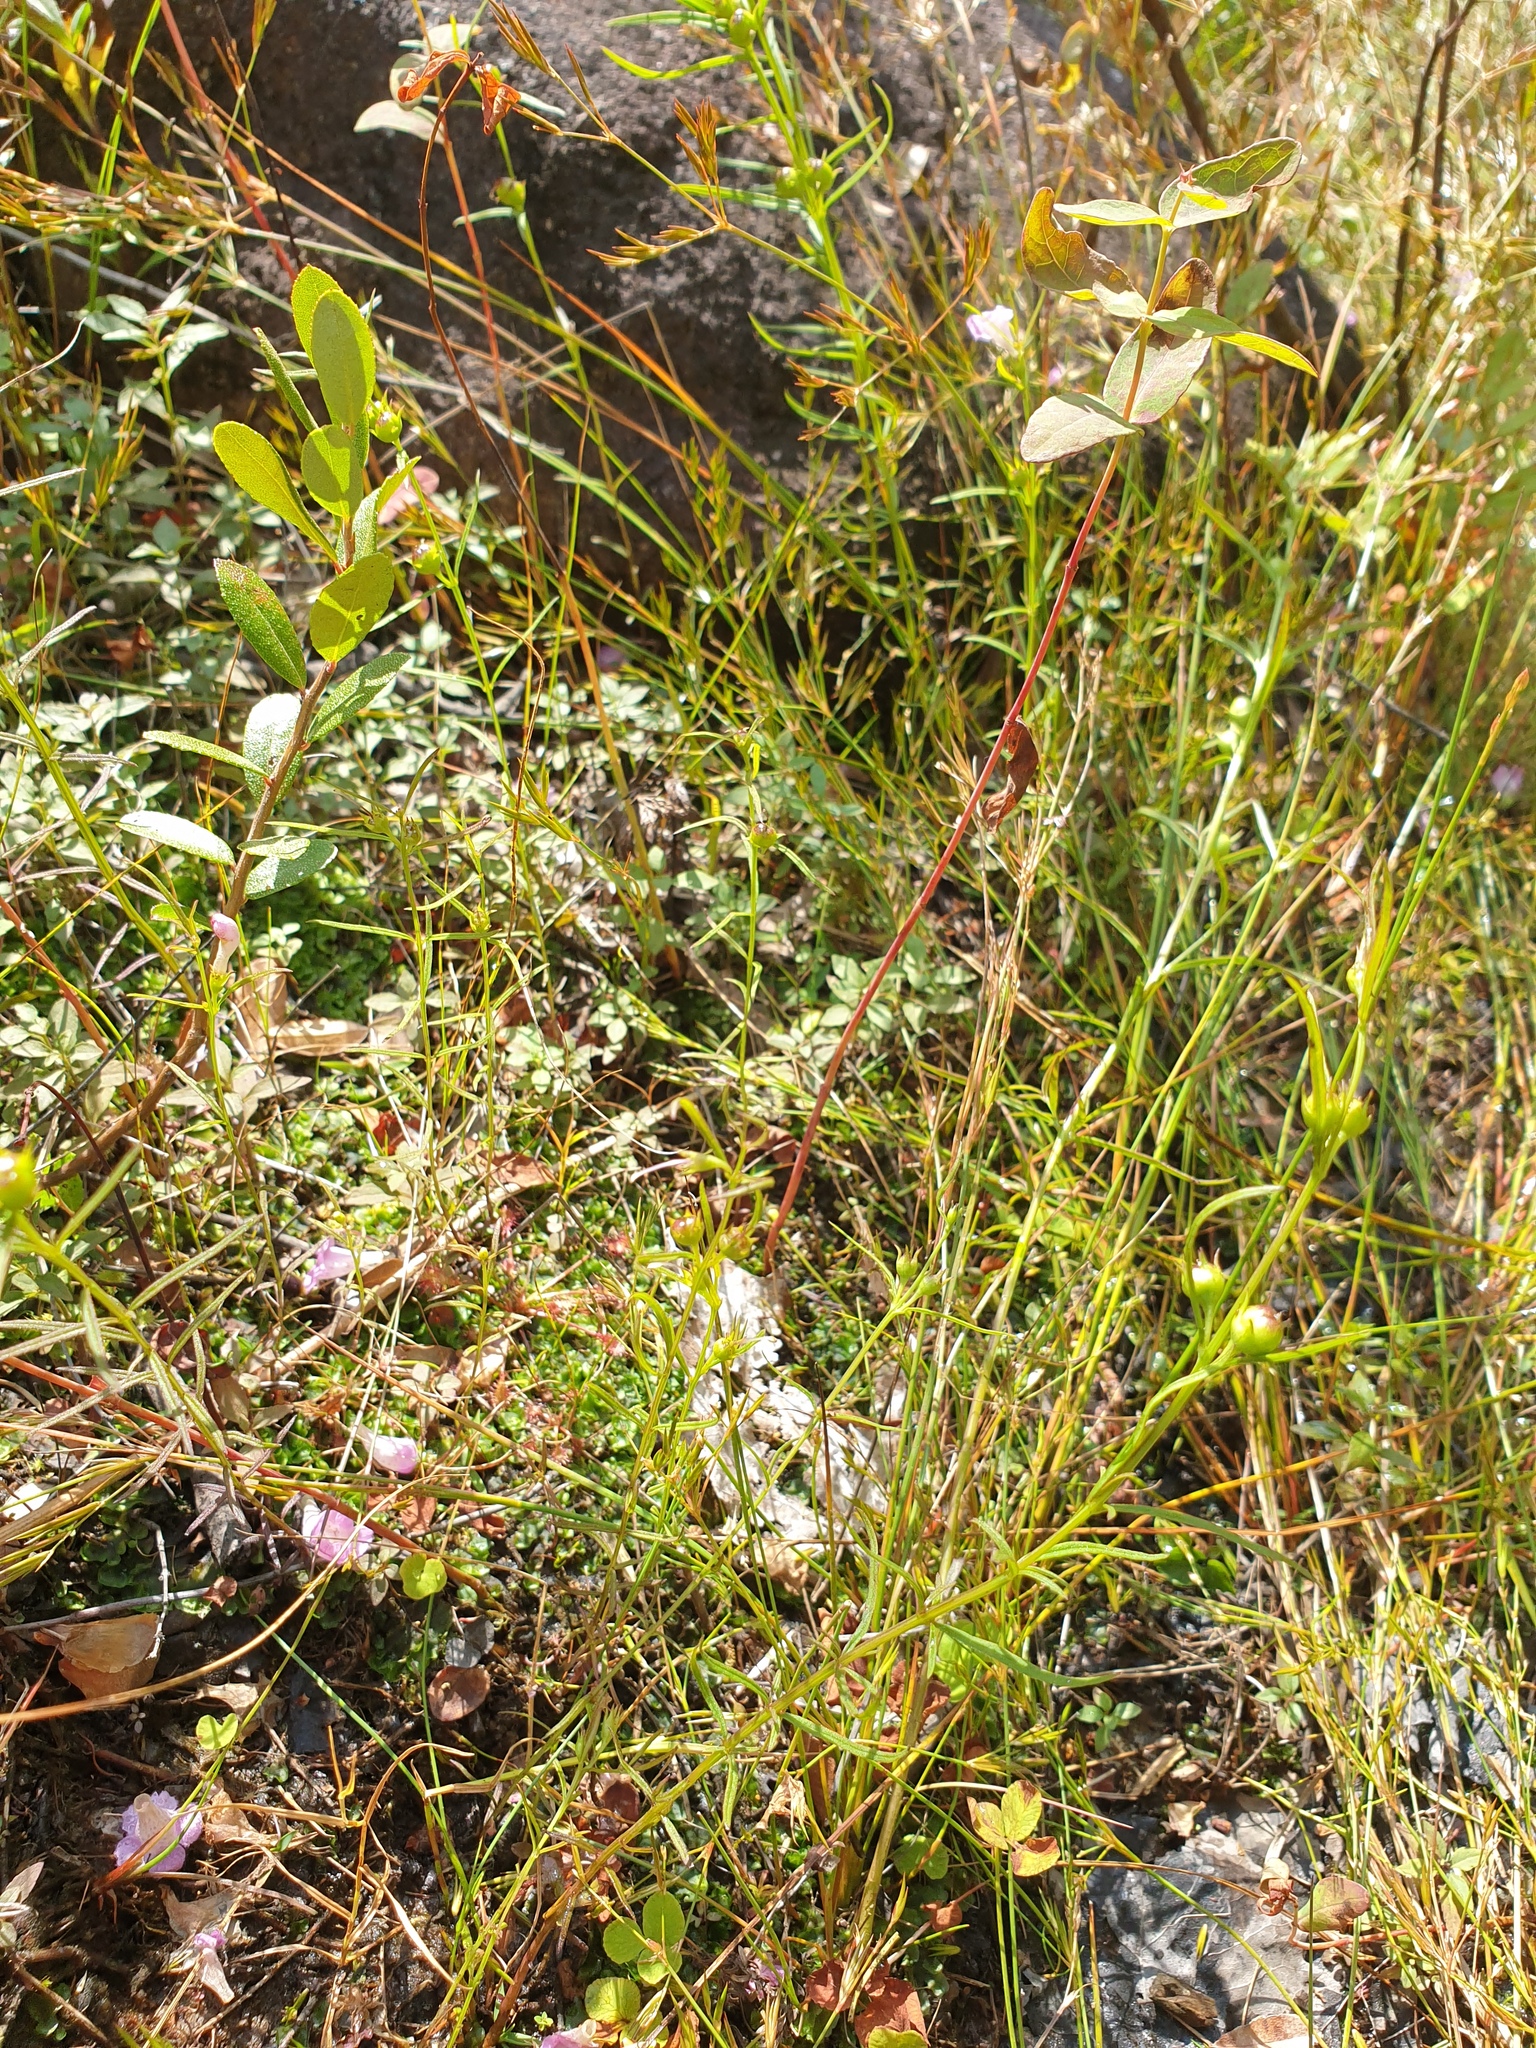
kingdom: Plantae
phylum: Tracheophyta
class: Magnoliopsida
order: Lamiales
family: Orobanchaceae
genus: Agalinis
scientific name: Agalinis purpurea
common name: Purple false foxglove
